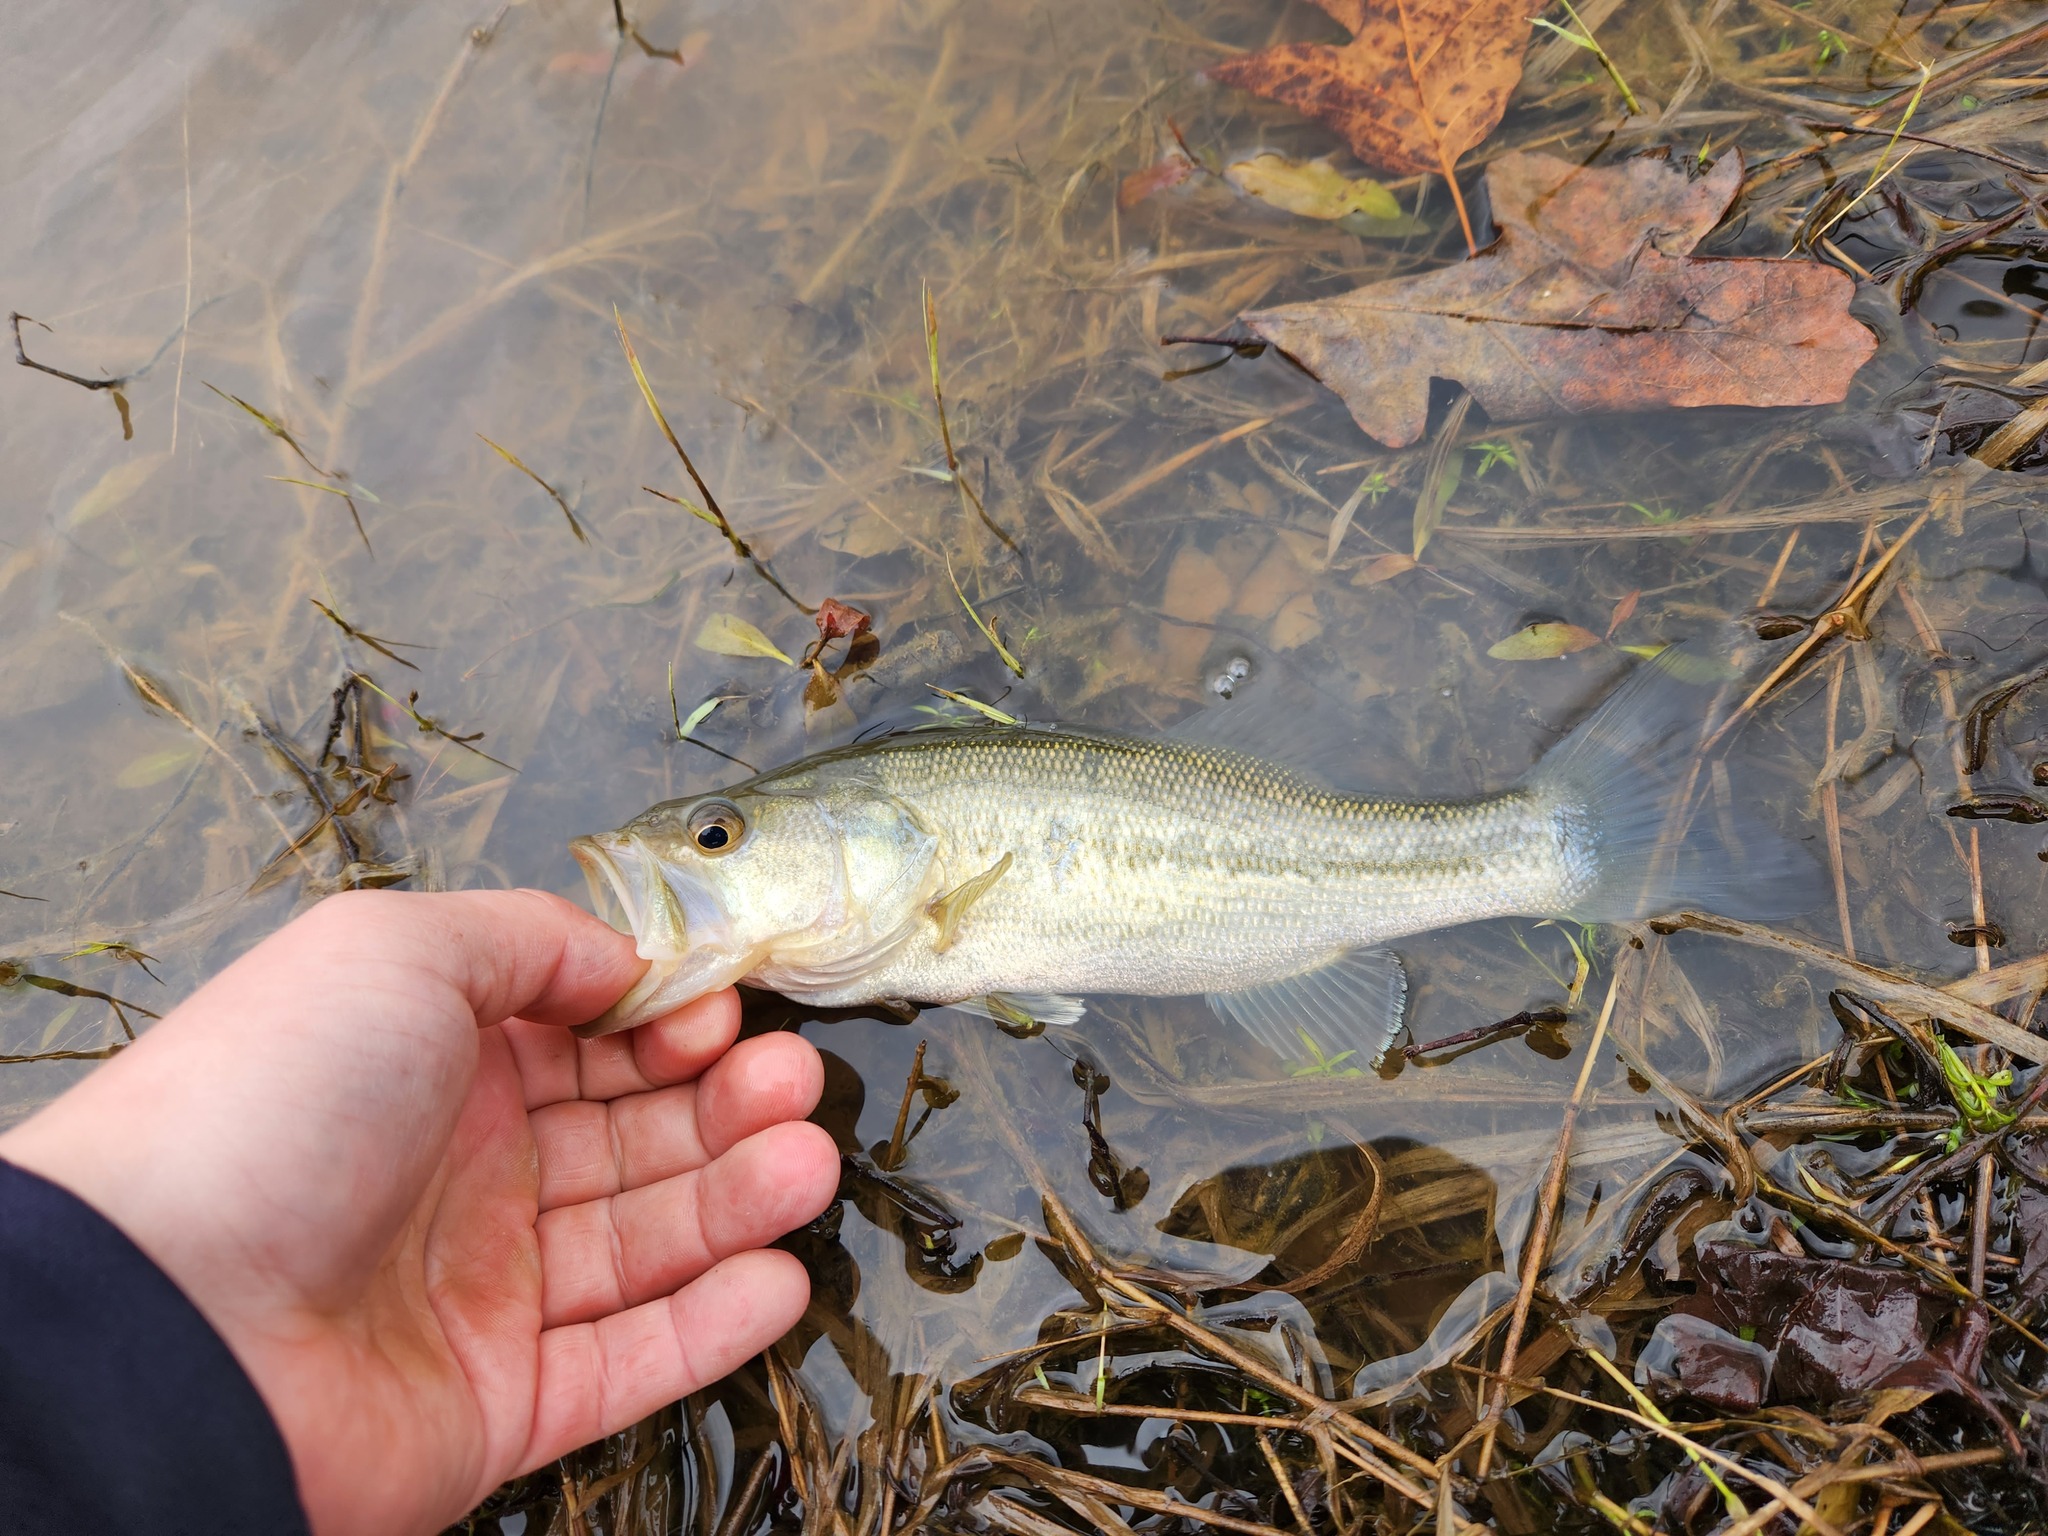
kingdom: Animalia
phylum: Chordata
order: Perciformes
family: Centrarchidae
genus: Micropterus
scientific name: Micropterus
